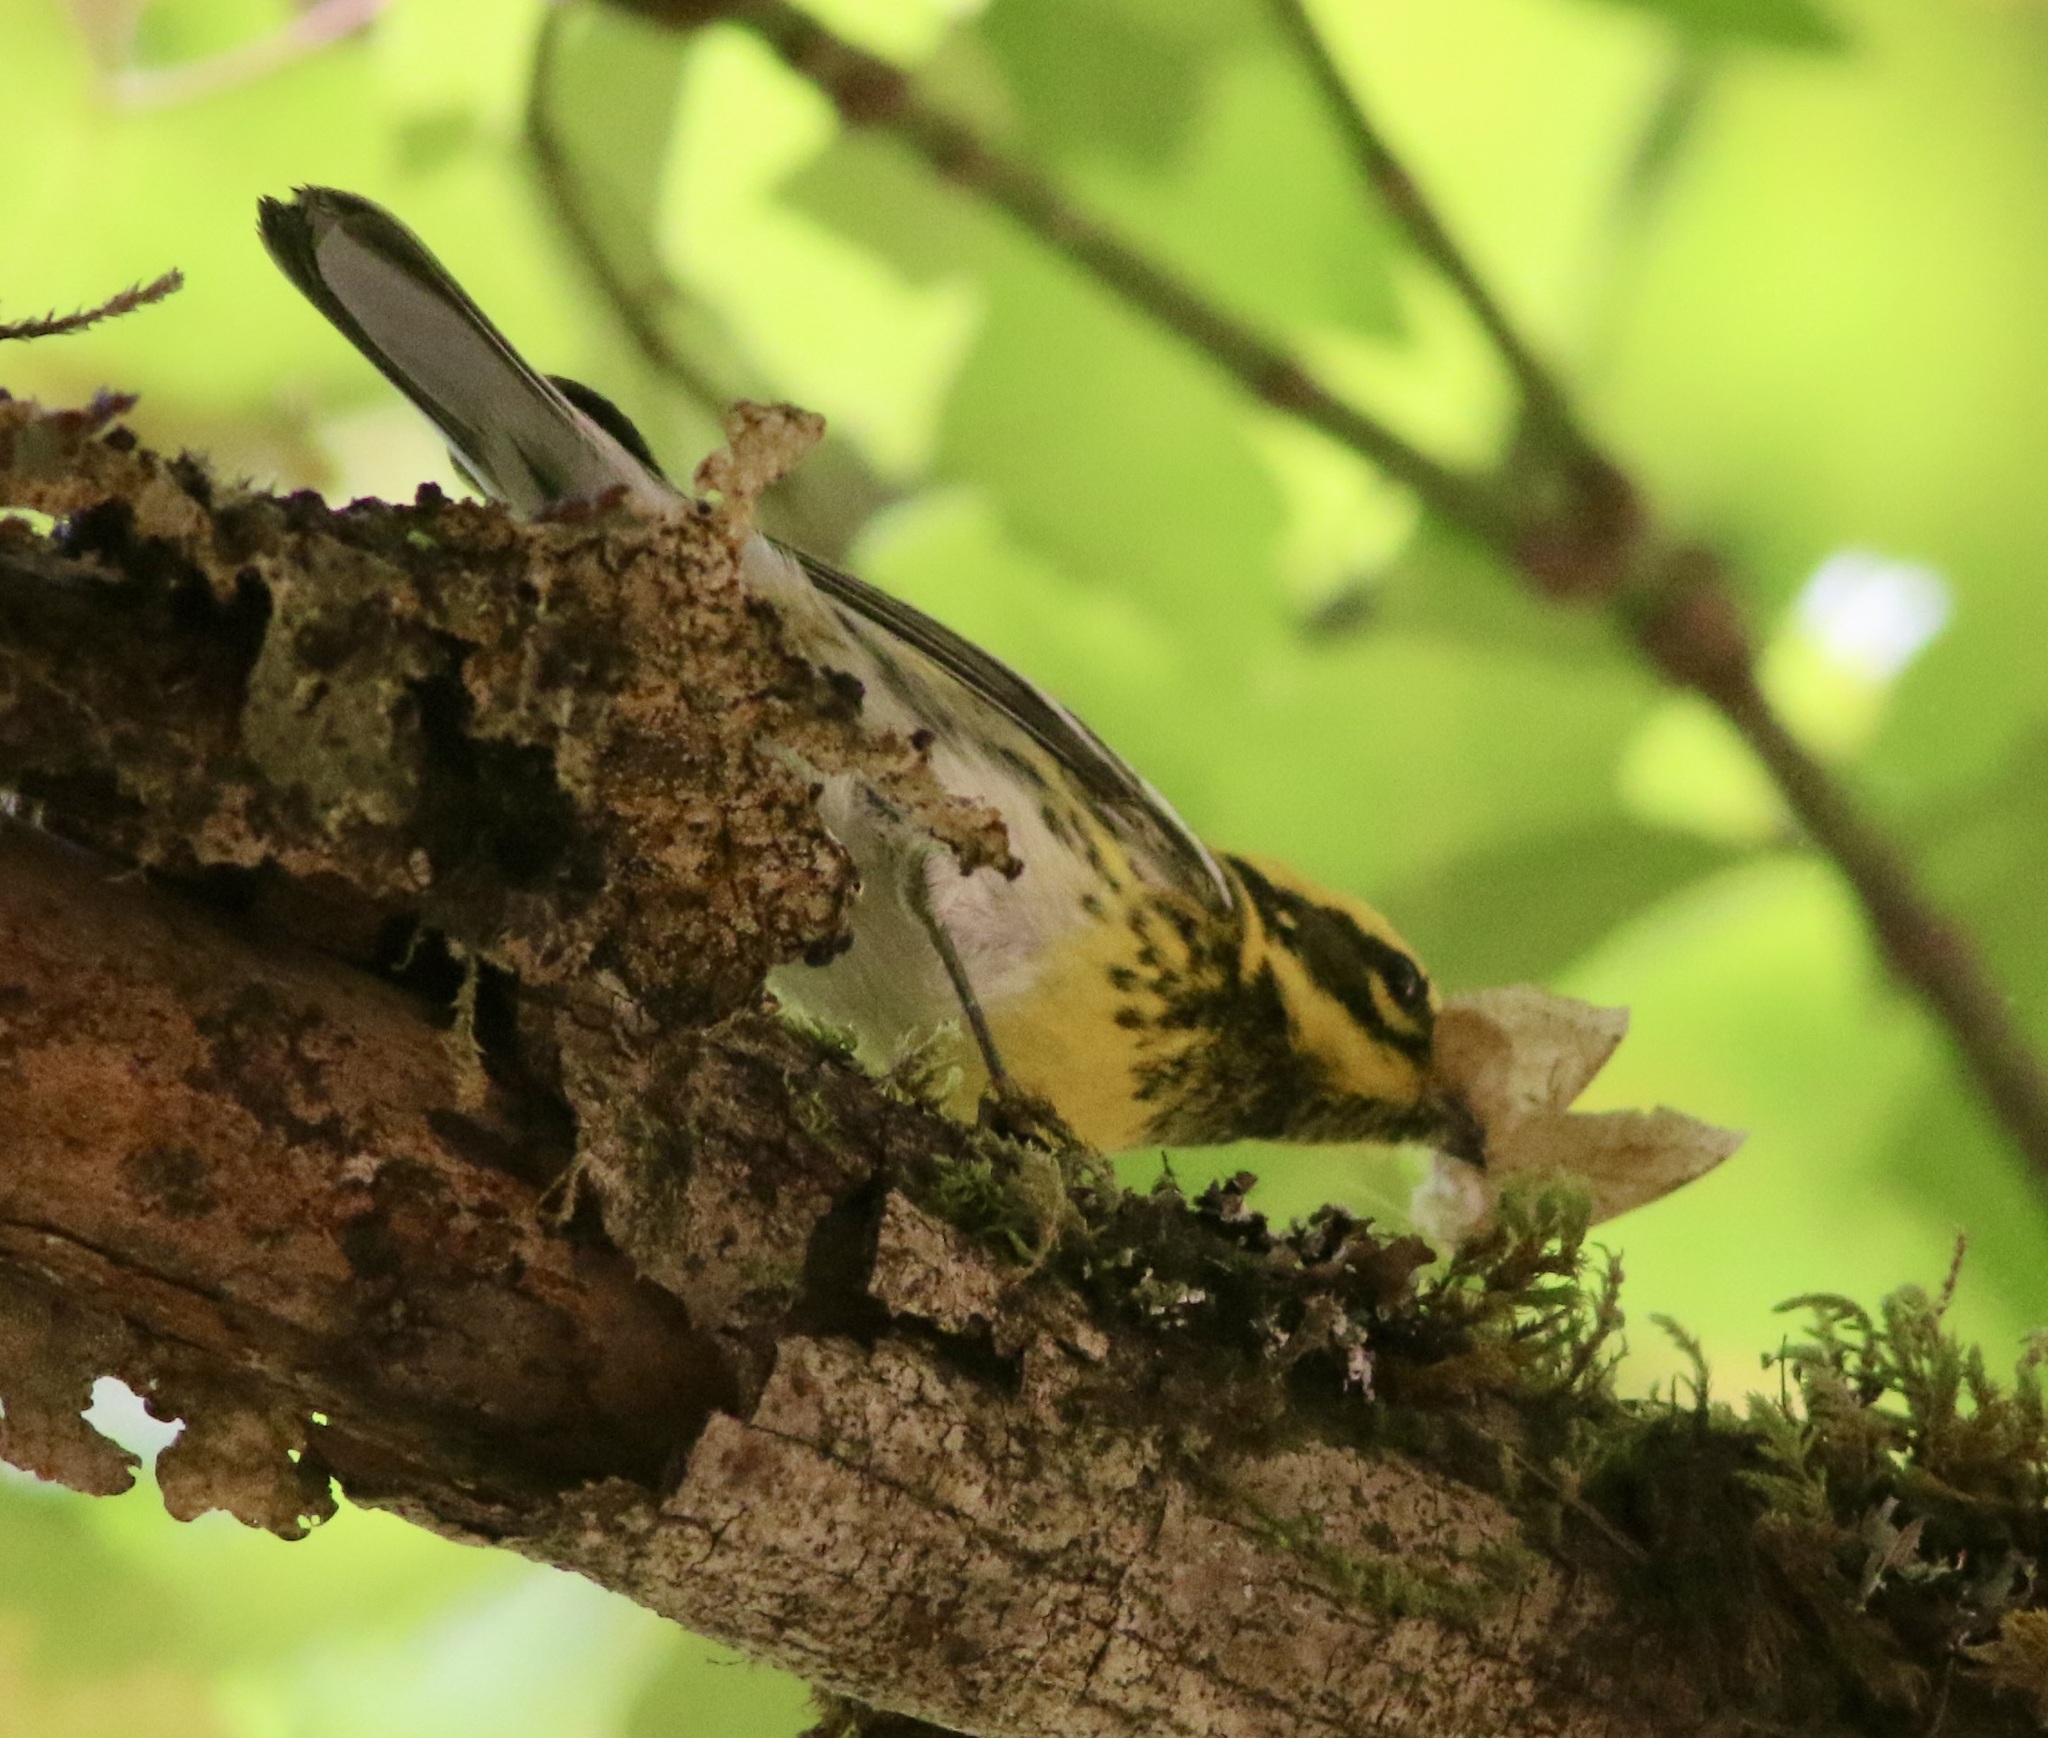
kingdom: Animalia
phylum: Chordata
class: Aves
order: Passeriformes
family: Parulidae
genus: Setophaga
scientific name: Setophaga townsendi
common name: Townsend's warbler
